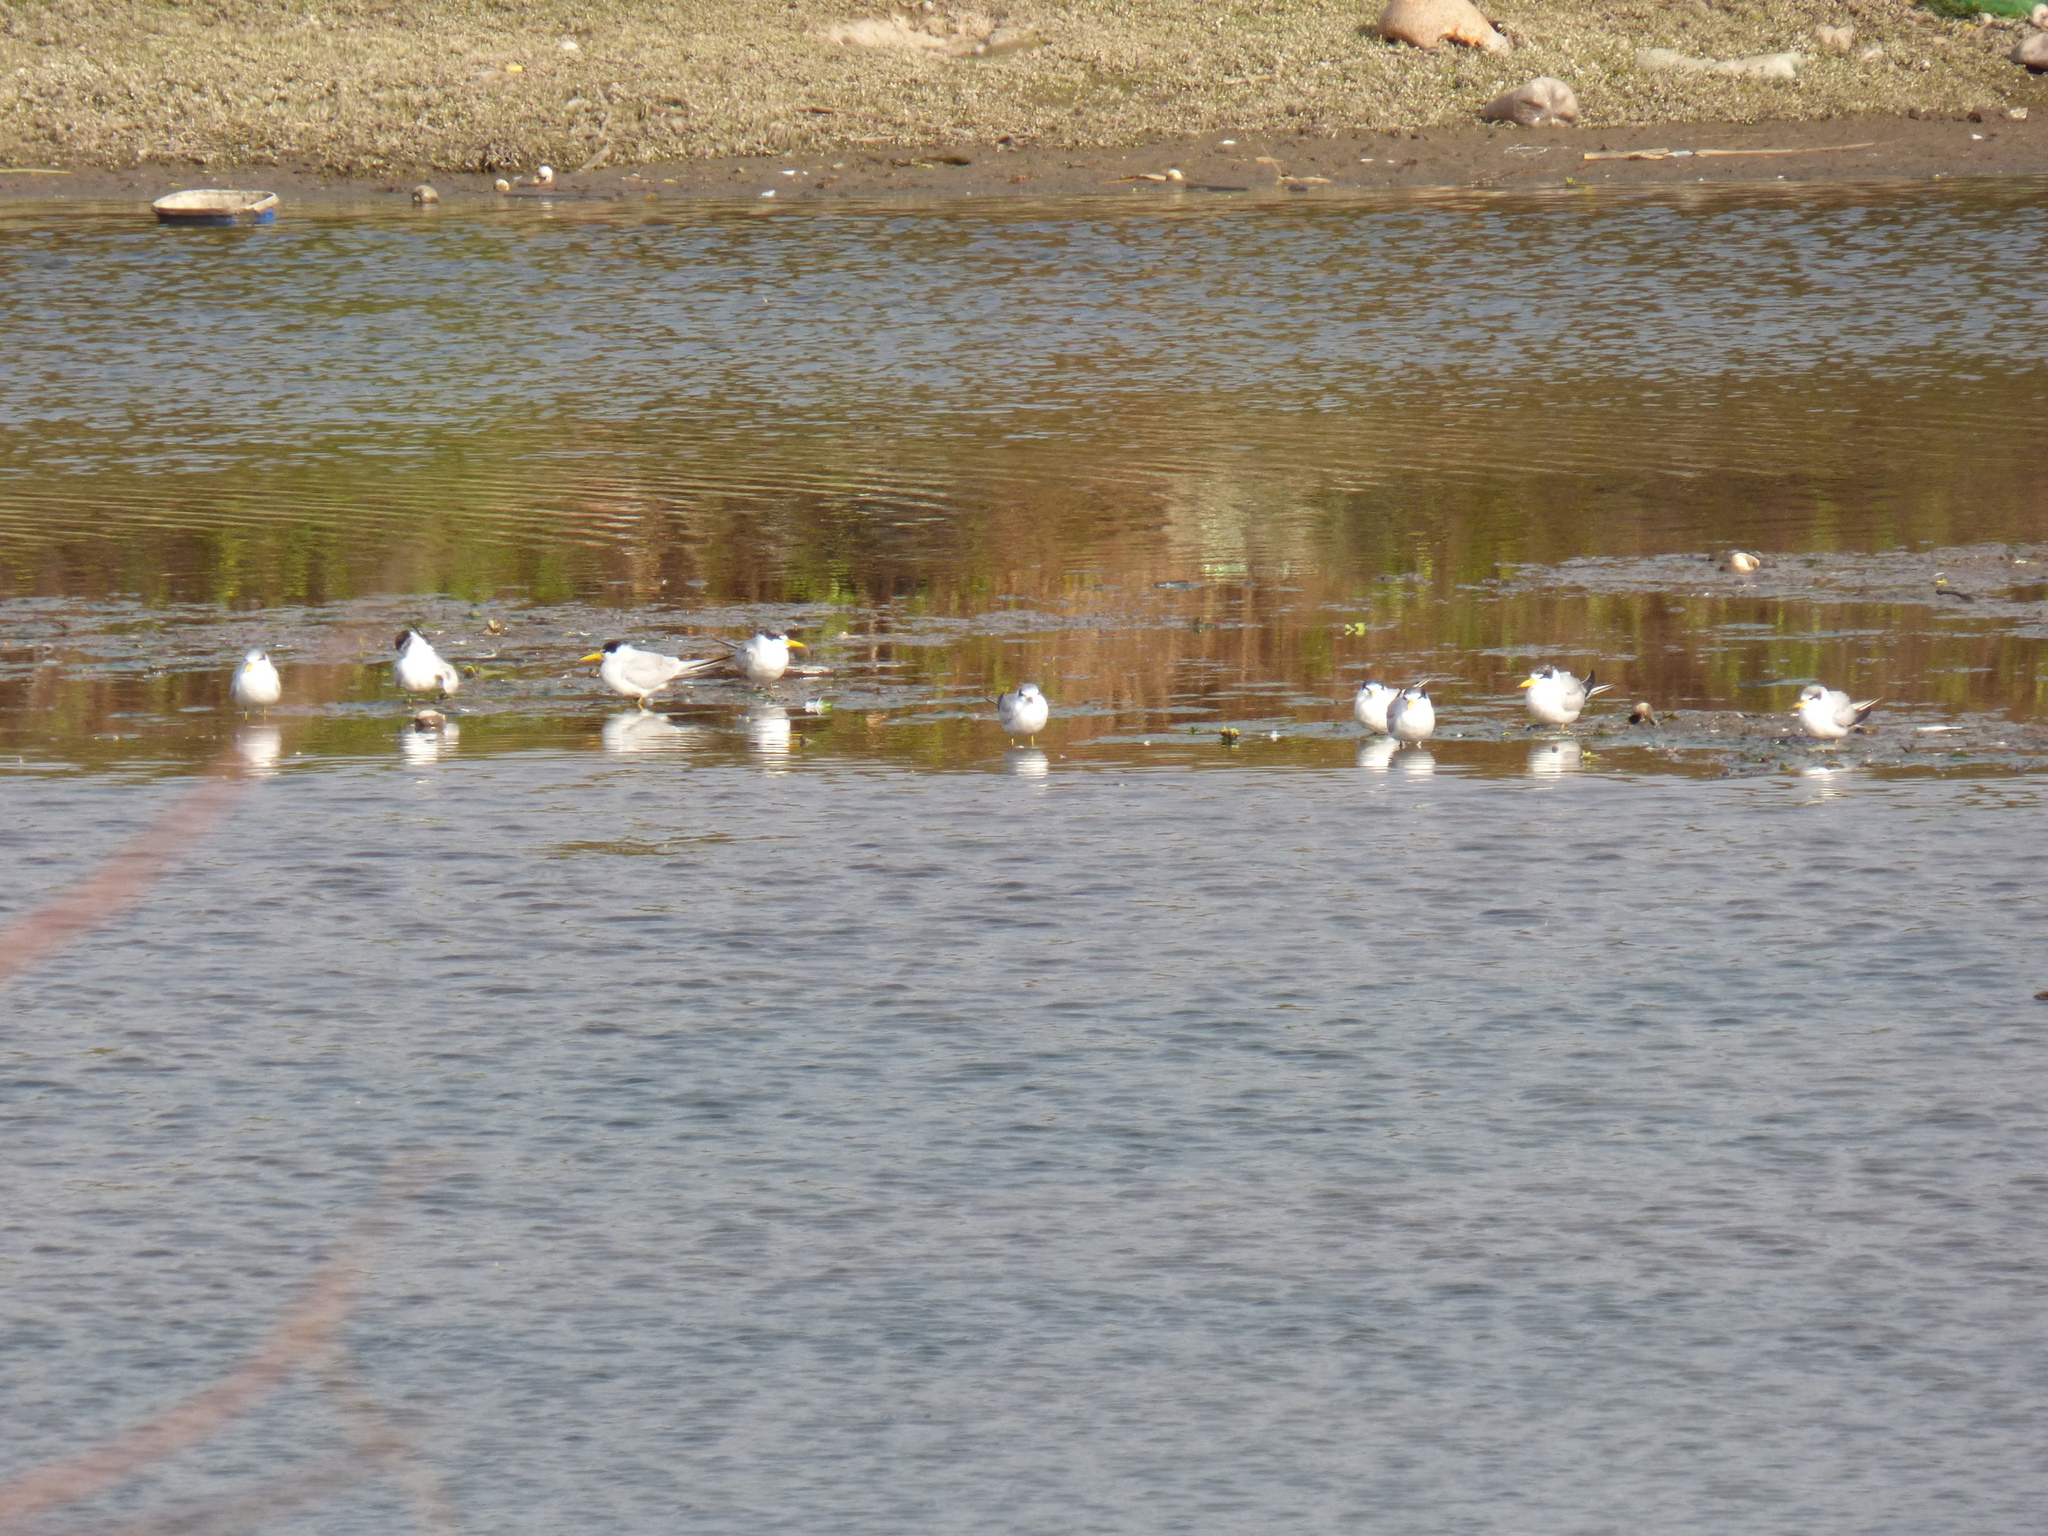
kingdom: Animalia
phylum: Chordata
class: Aves
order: Charadriiformes
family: Laridae
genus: Sternula
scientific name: Sternula superciliaris
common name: Yellow-billed tern
